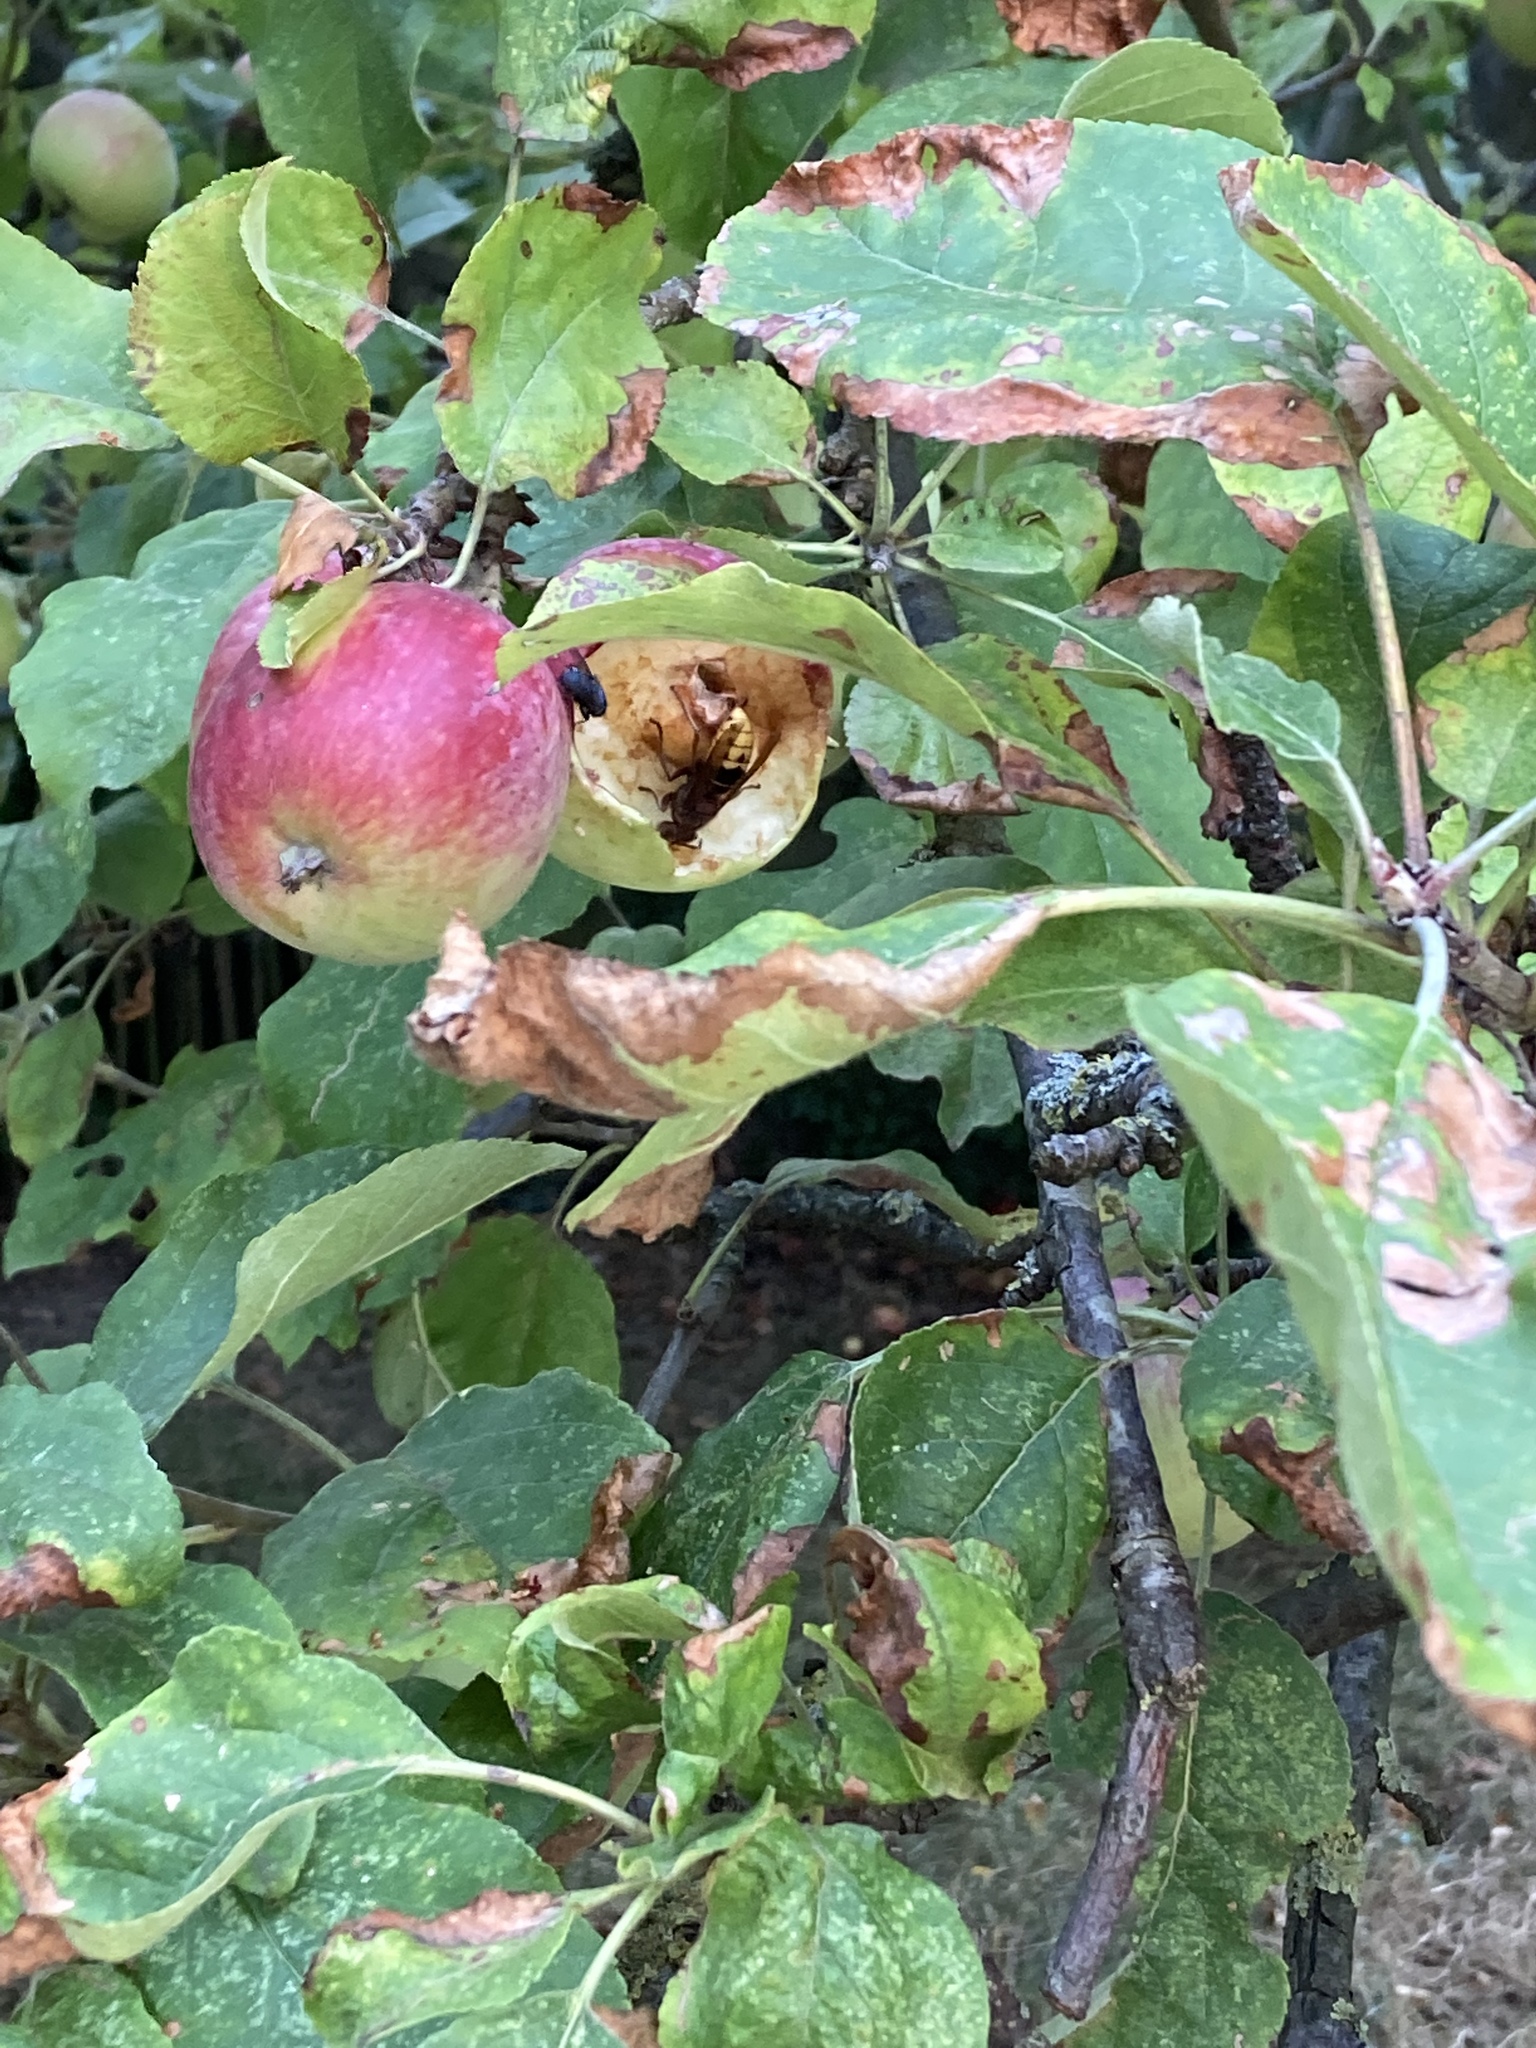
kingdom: Animalia
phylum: Arthropoda
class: Insecta
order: Hymenoptera
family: Vespidae
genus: Vespa
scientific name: Vespa crabro
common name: Hornet
